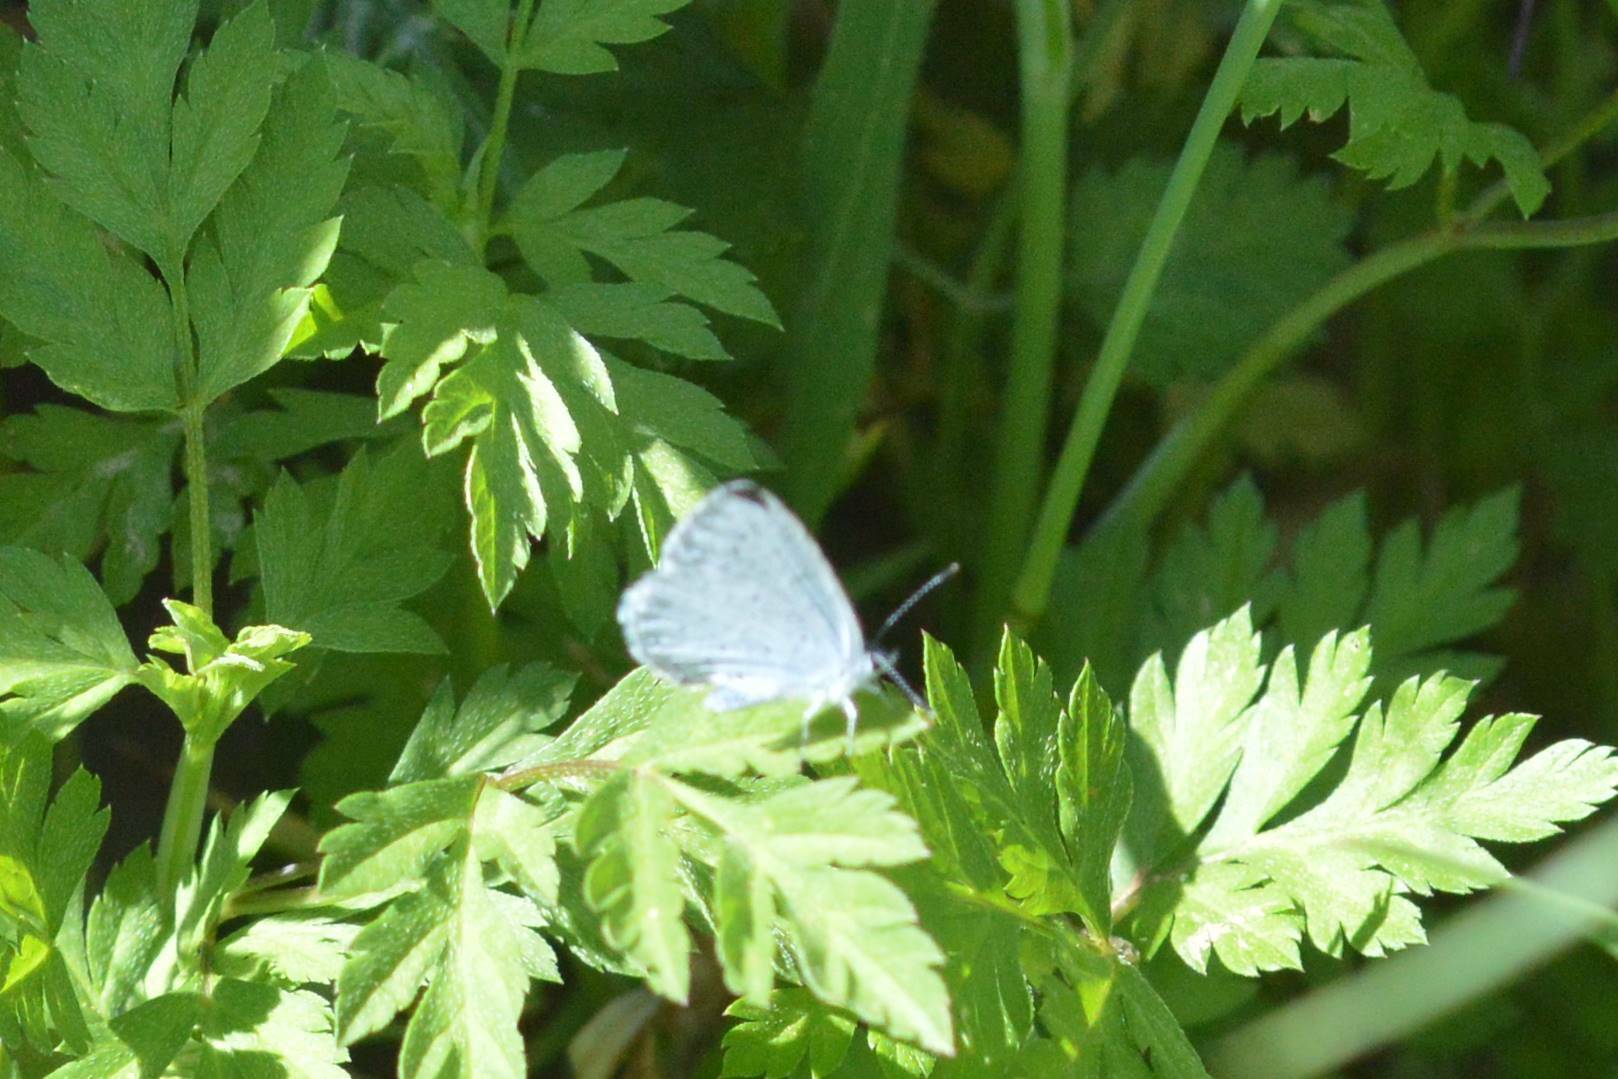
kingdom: Animalia
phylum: Arthropoda
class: Insecta
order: Lepidoptera
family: Lycaenidae
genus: Celastrina
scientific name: Celastrina argiolus
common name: Holly blue
